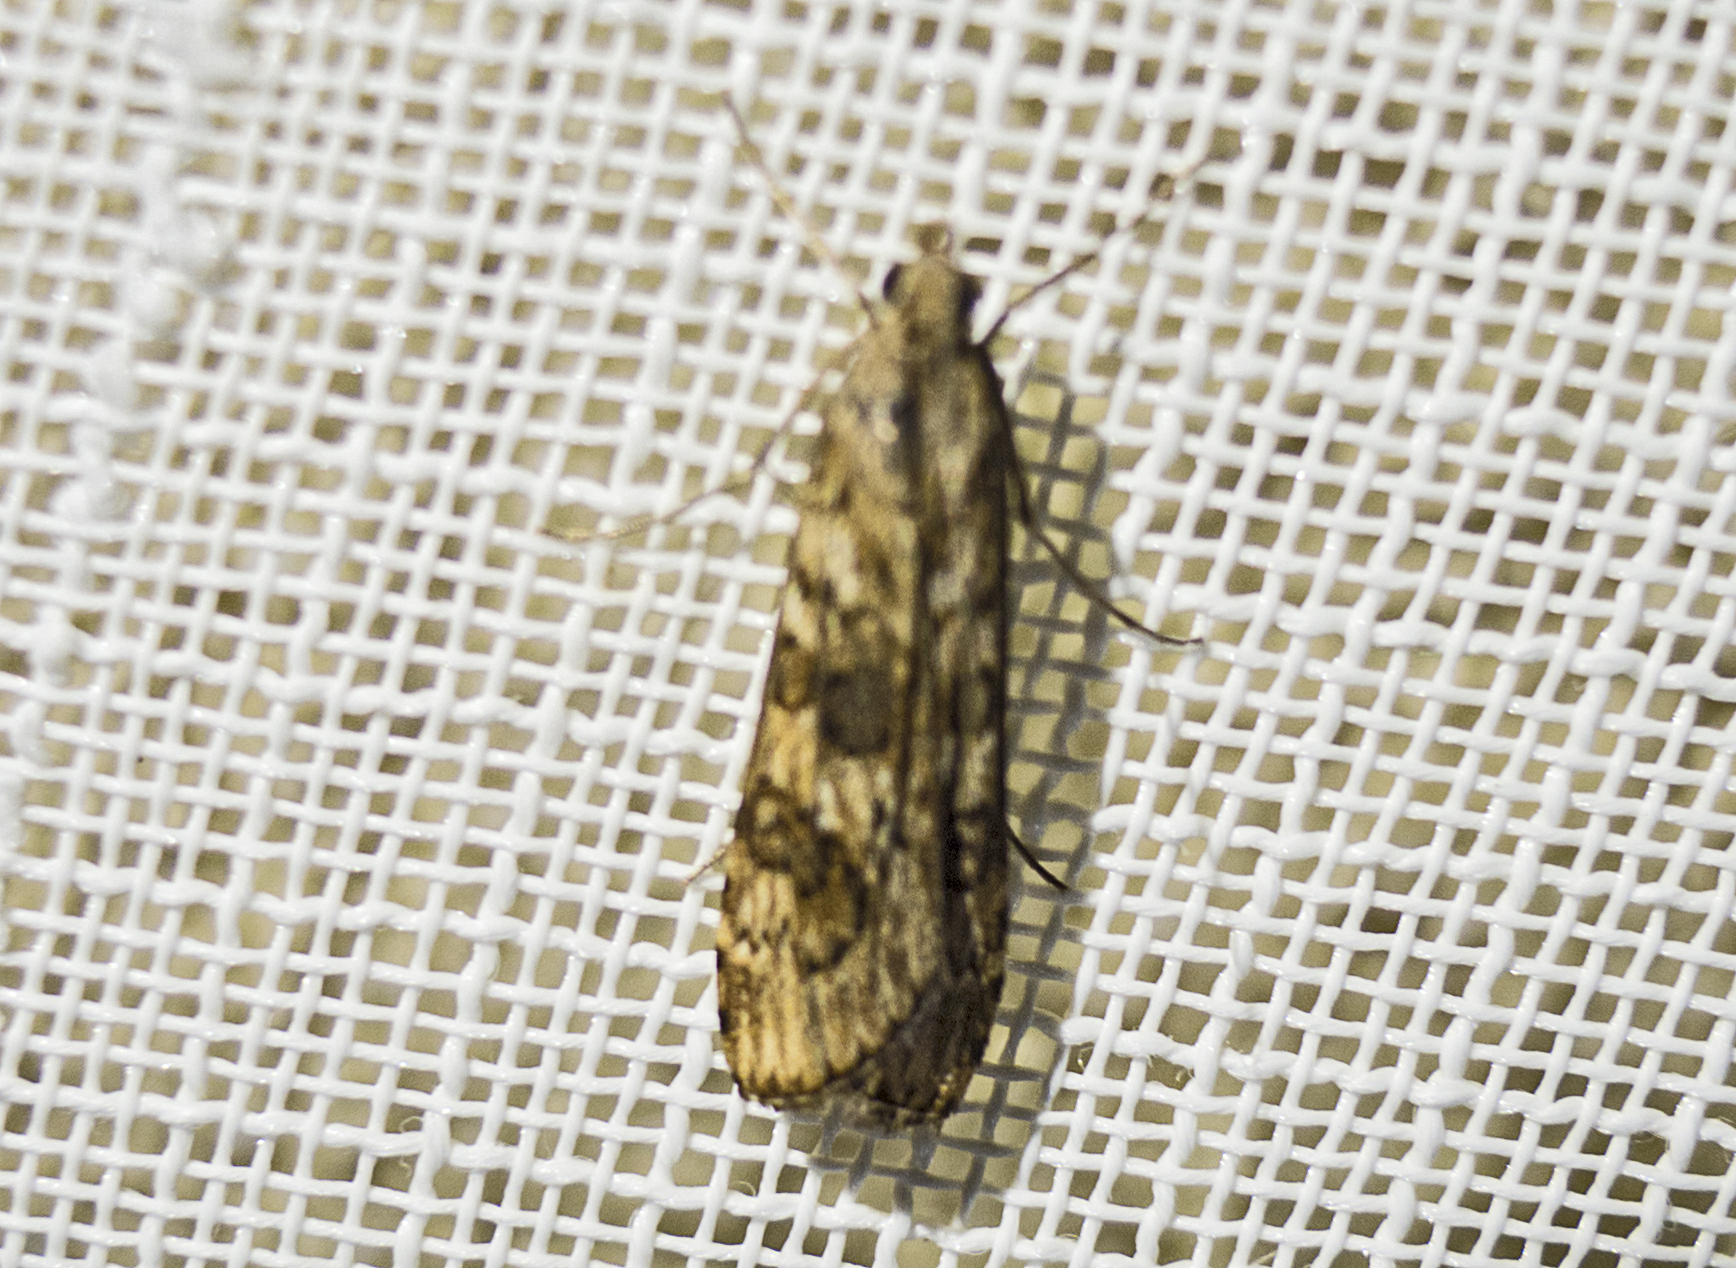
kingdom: Animalia
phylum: Arthropoda
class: Insecta
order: Lepidoptera
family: Crambidae
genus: Nomophila
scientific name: Nomophila noctuella
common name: Rush veneer
